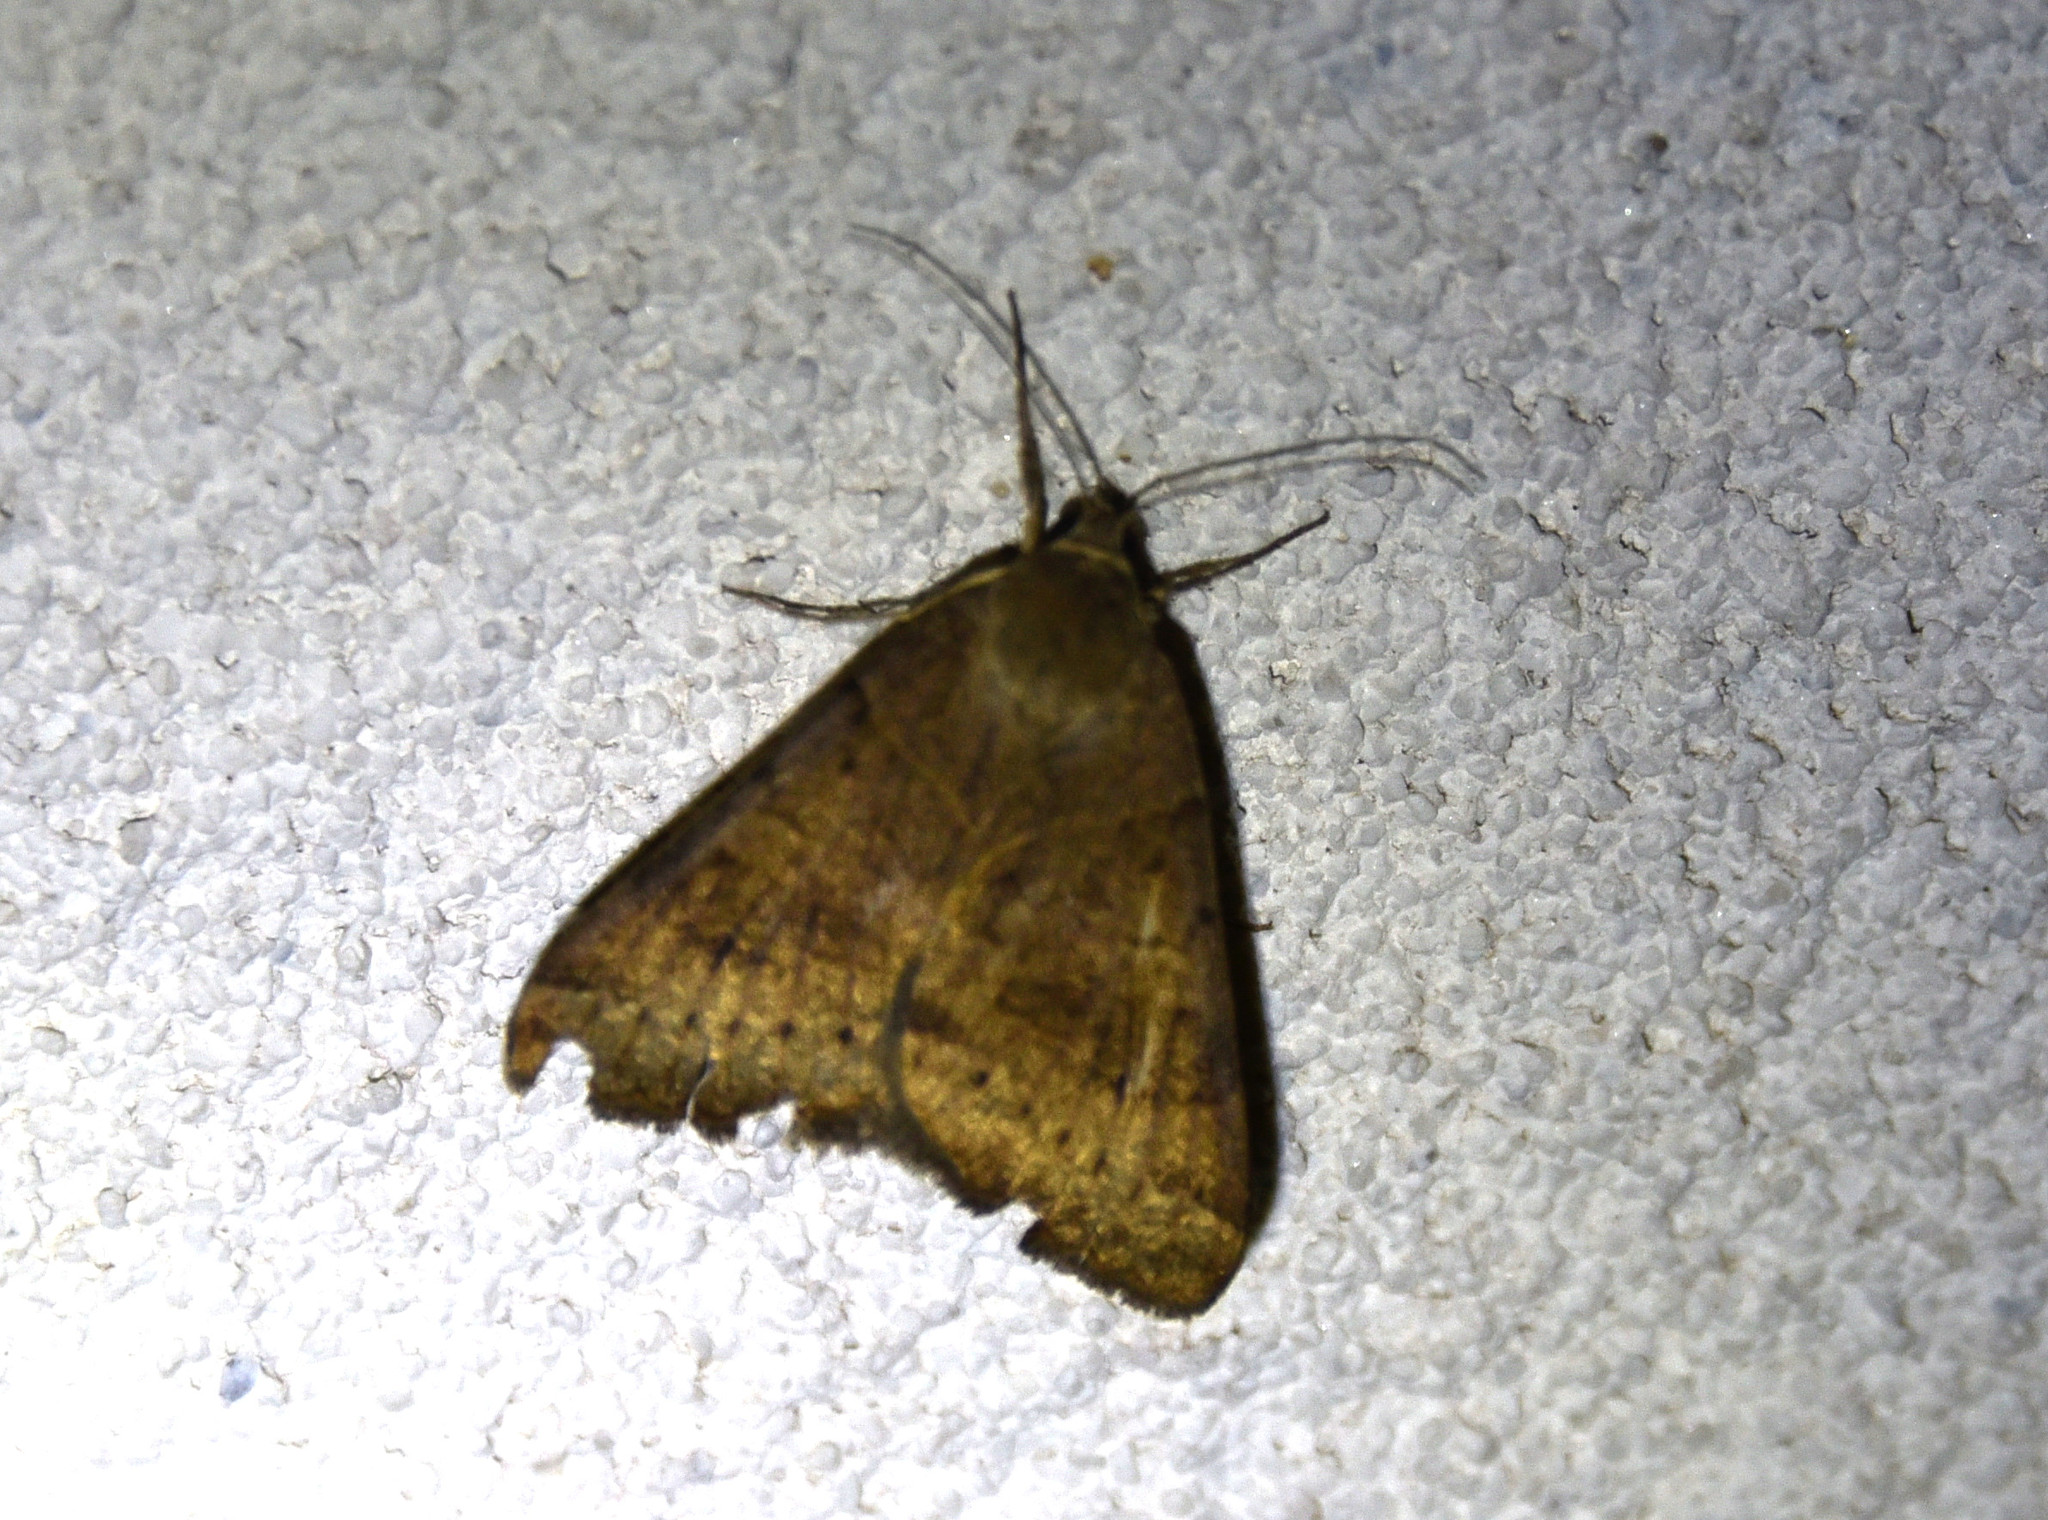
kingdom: Animalia
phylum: Arthropoda
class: Insecta
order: Lepidoptera
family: Erebidae
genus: Caenurgina
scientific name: Caenurgina erechtea
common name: Forage looper moth
